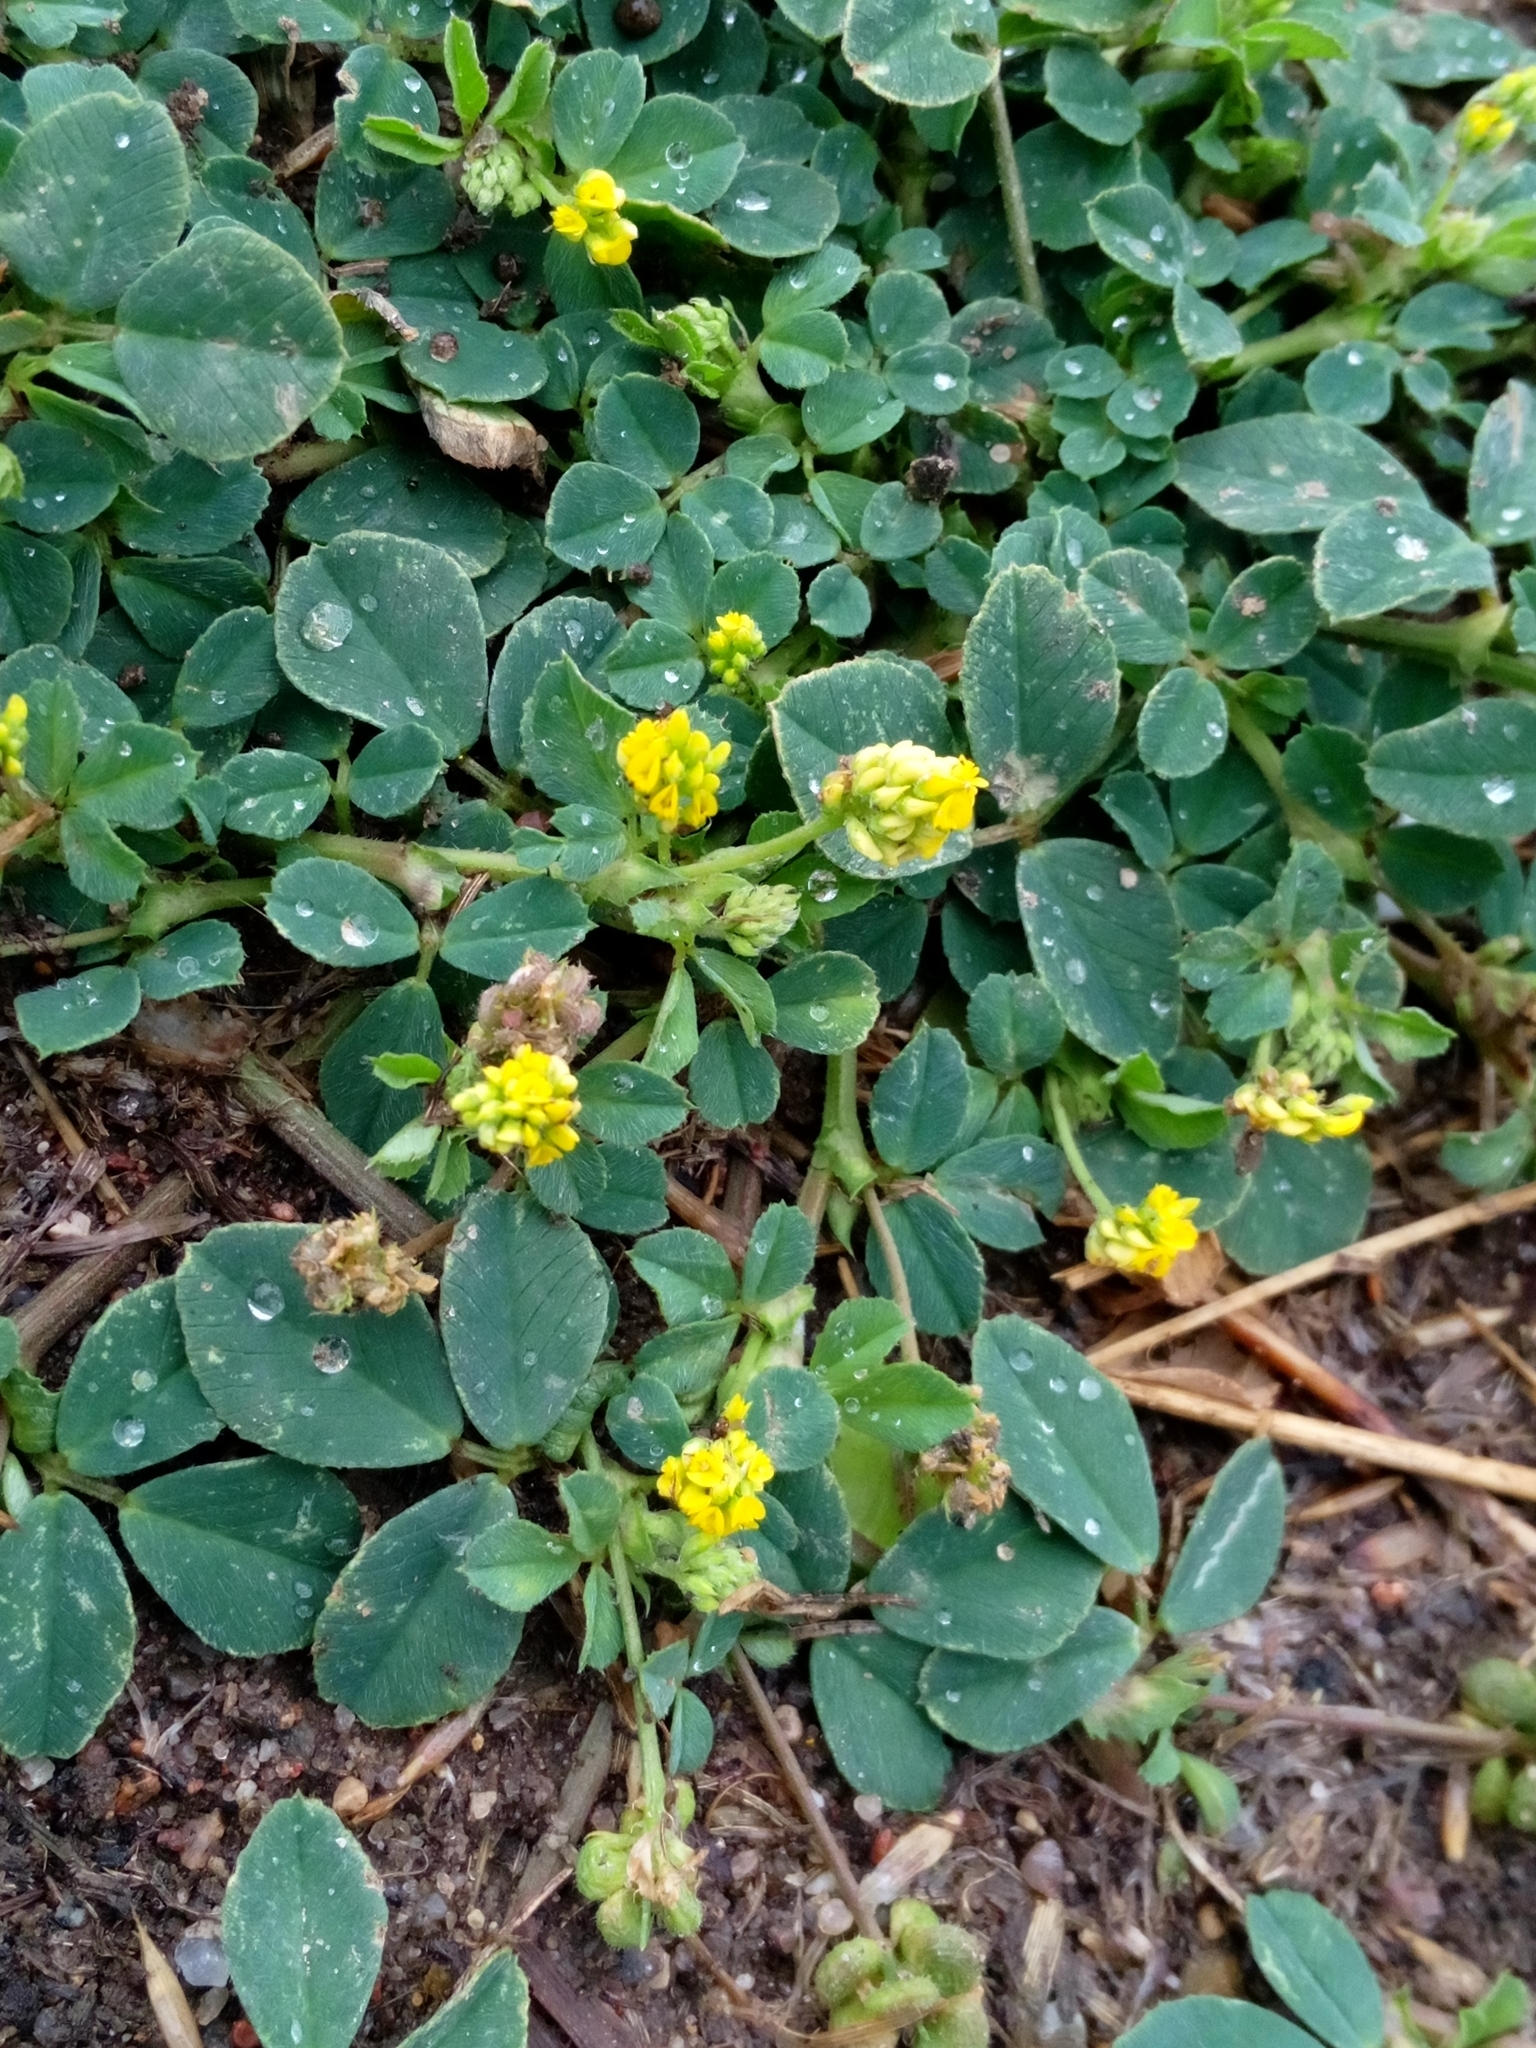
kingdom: Plantae
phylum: Tracheophyta
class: Magnoliopsida
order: Fabales
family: Fabaceae
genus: Medicago
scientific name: Medicago lupulina
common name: Black medick
